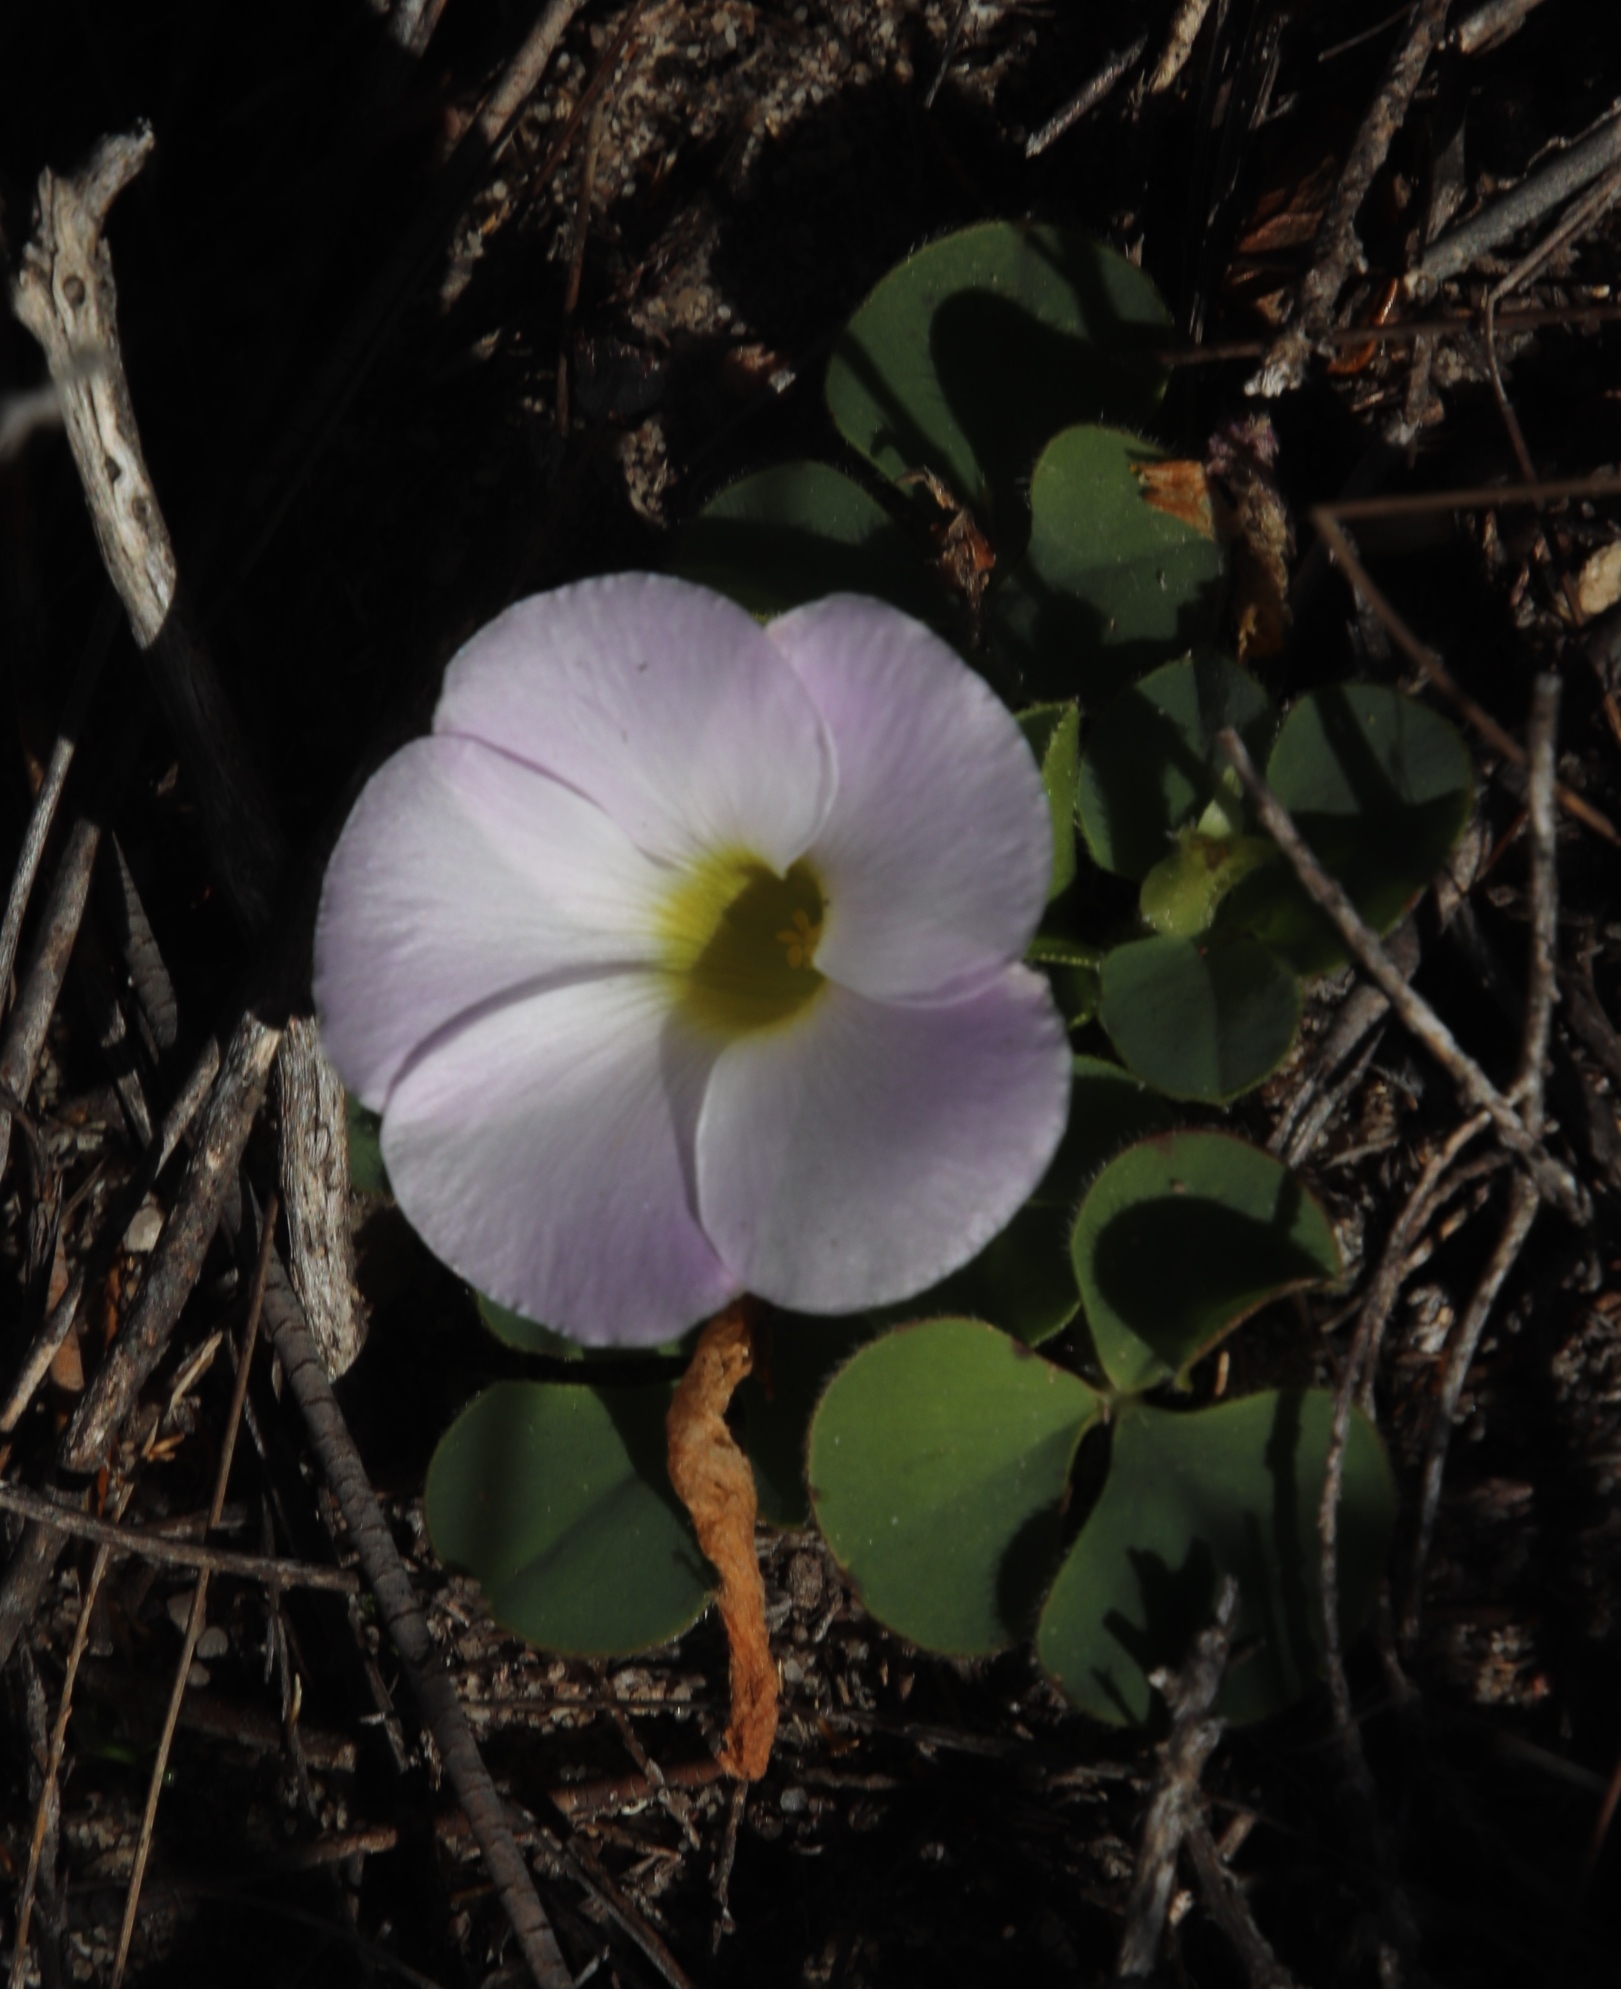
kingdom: Plantae
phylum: Tracheophyta
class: Magnoliopsida
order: Oxalidales
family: Oxalidaceae
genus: Oxalis
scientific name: Oxalis purpurea
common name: Purple woodsorrel
